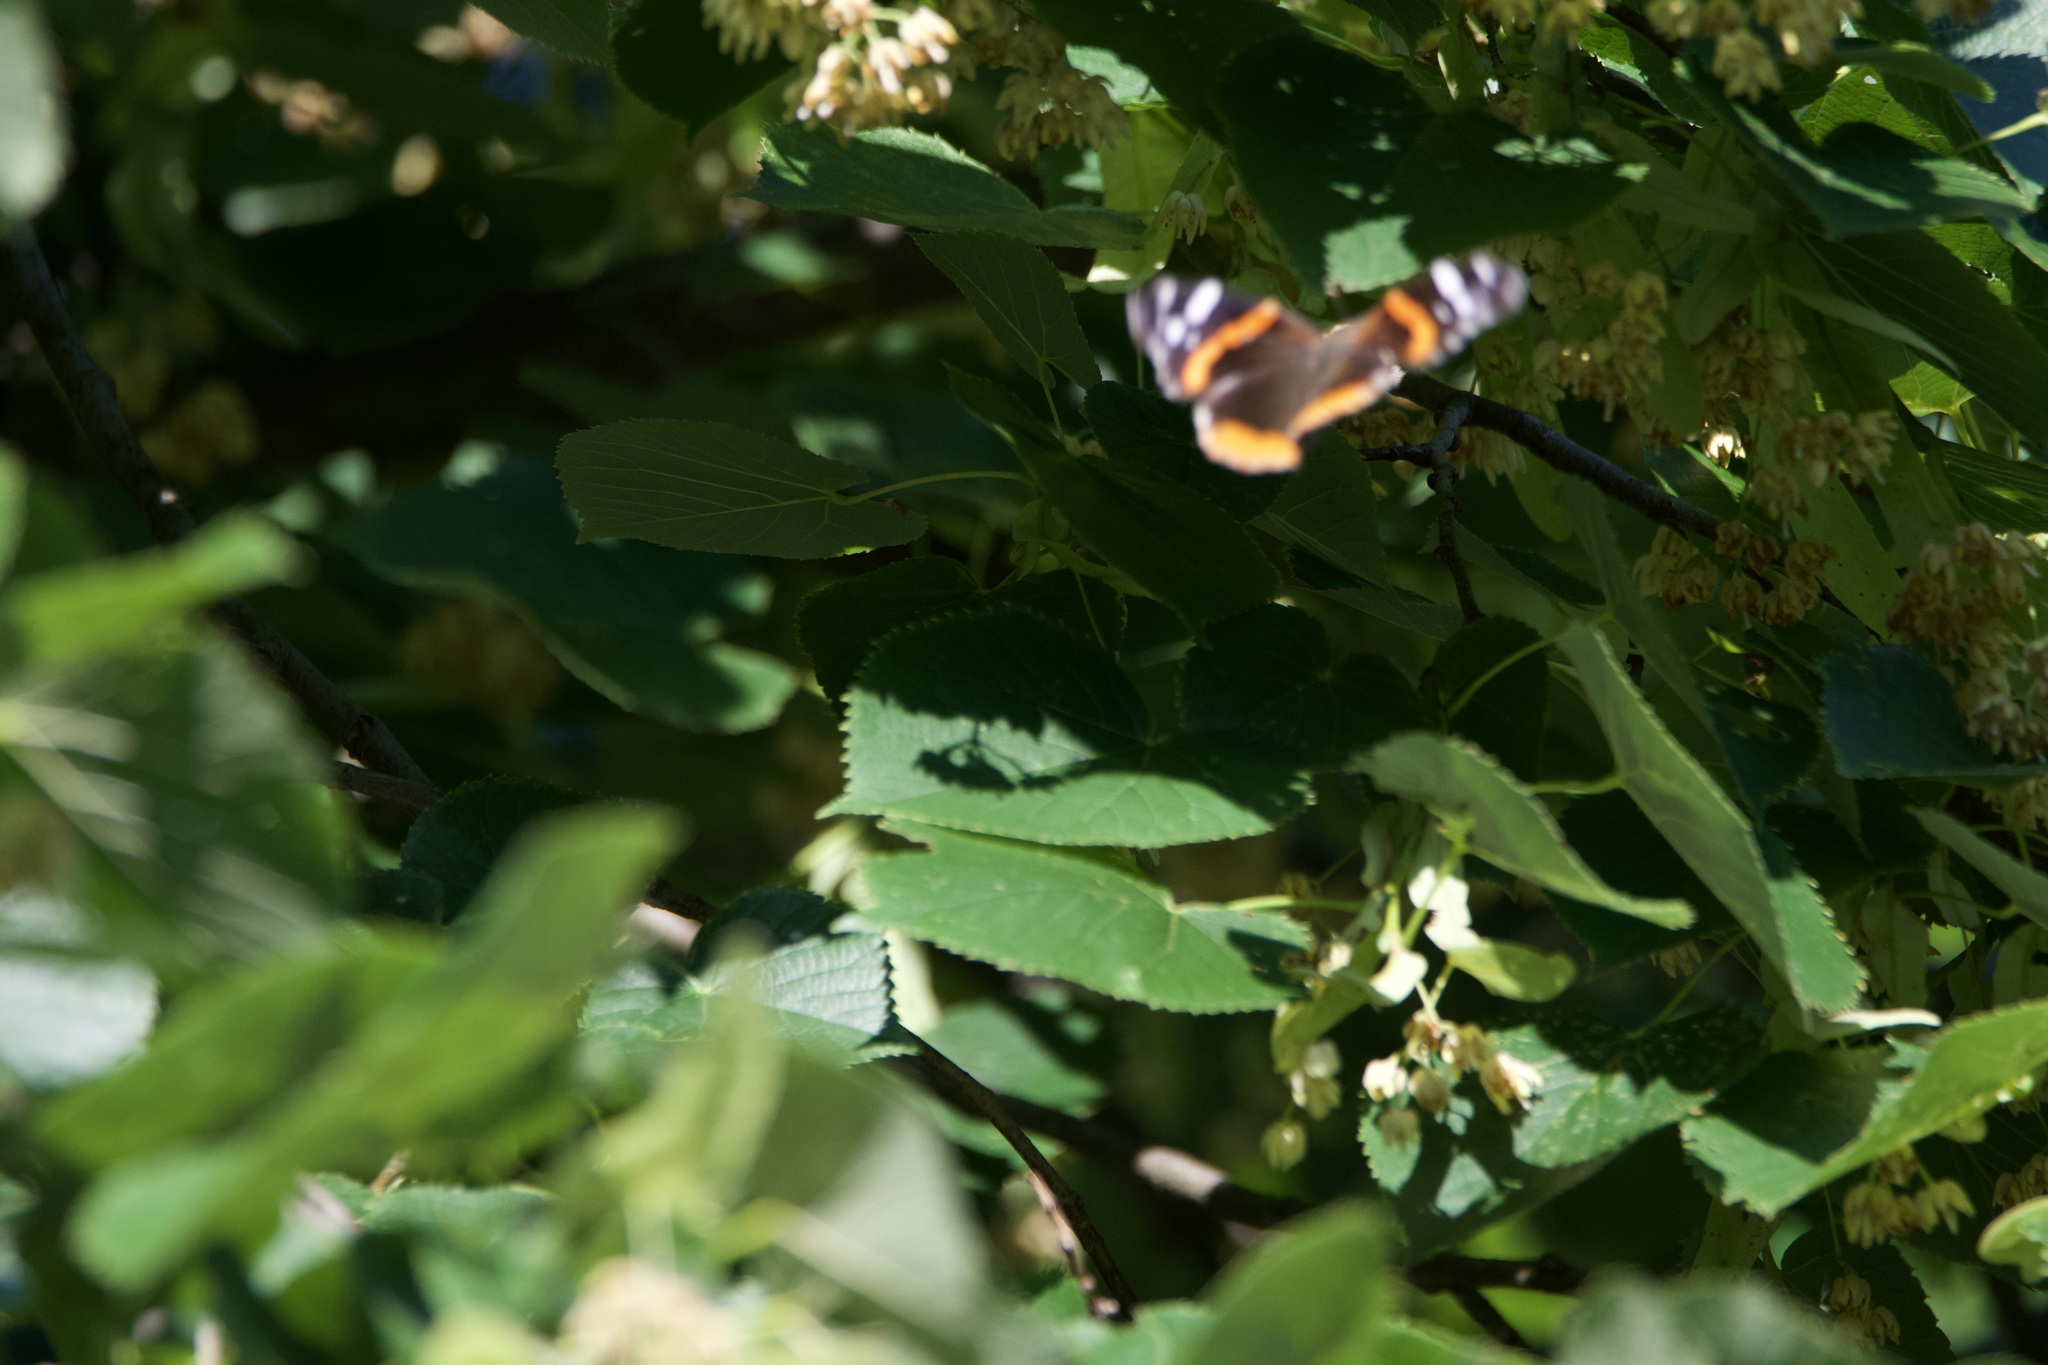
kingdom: Animalia
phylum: Arthropoda
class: Insecta
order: Lepidoptera
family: Nymphalidae
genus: Vanessa
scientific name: Vanessa atalanta
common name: Red admiral
